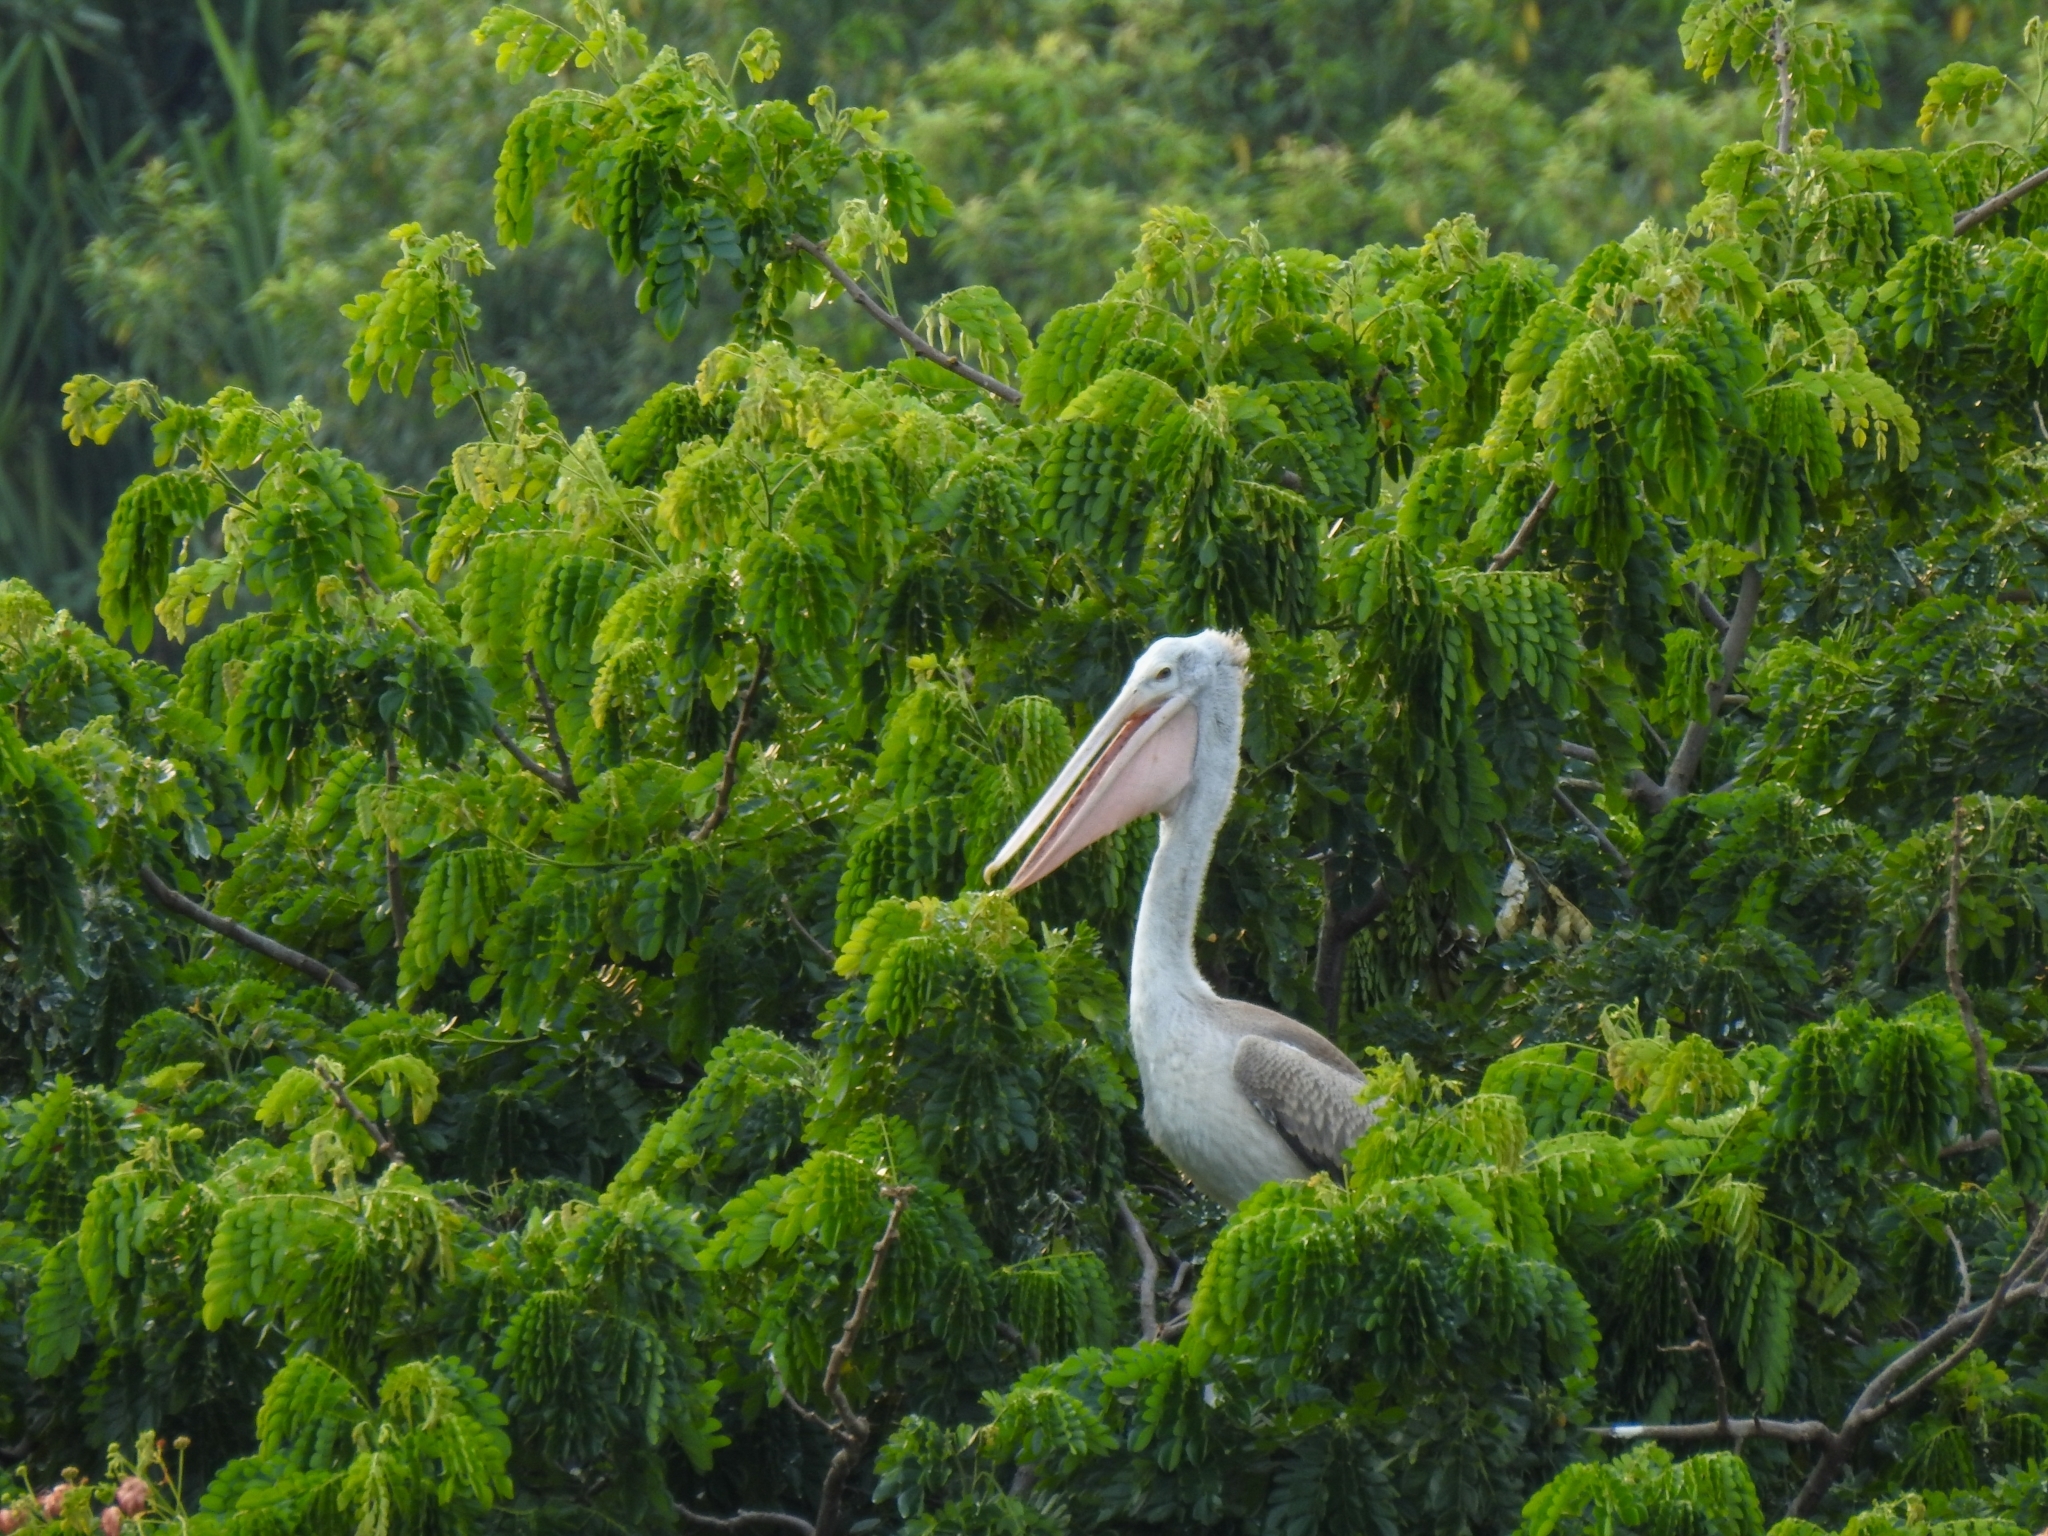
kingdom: Animalia
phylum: Chordata
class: Aves
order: Pelecaniformes
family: Pelecanidae
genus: Pelecanus
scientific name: Pelecanus philippensis
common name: Spot-billed pelican
